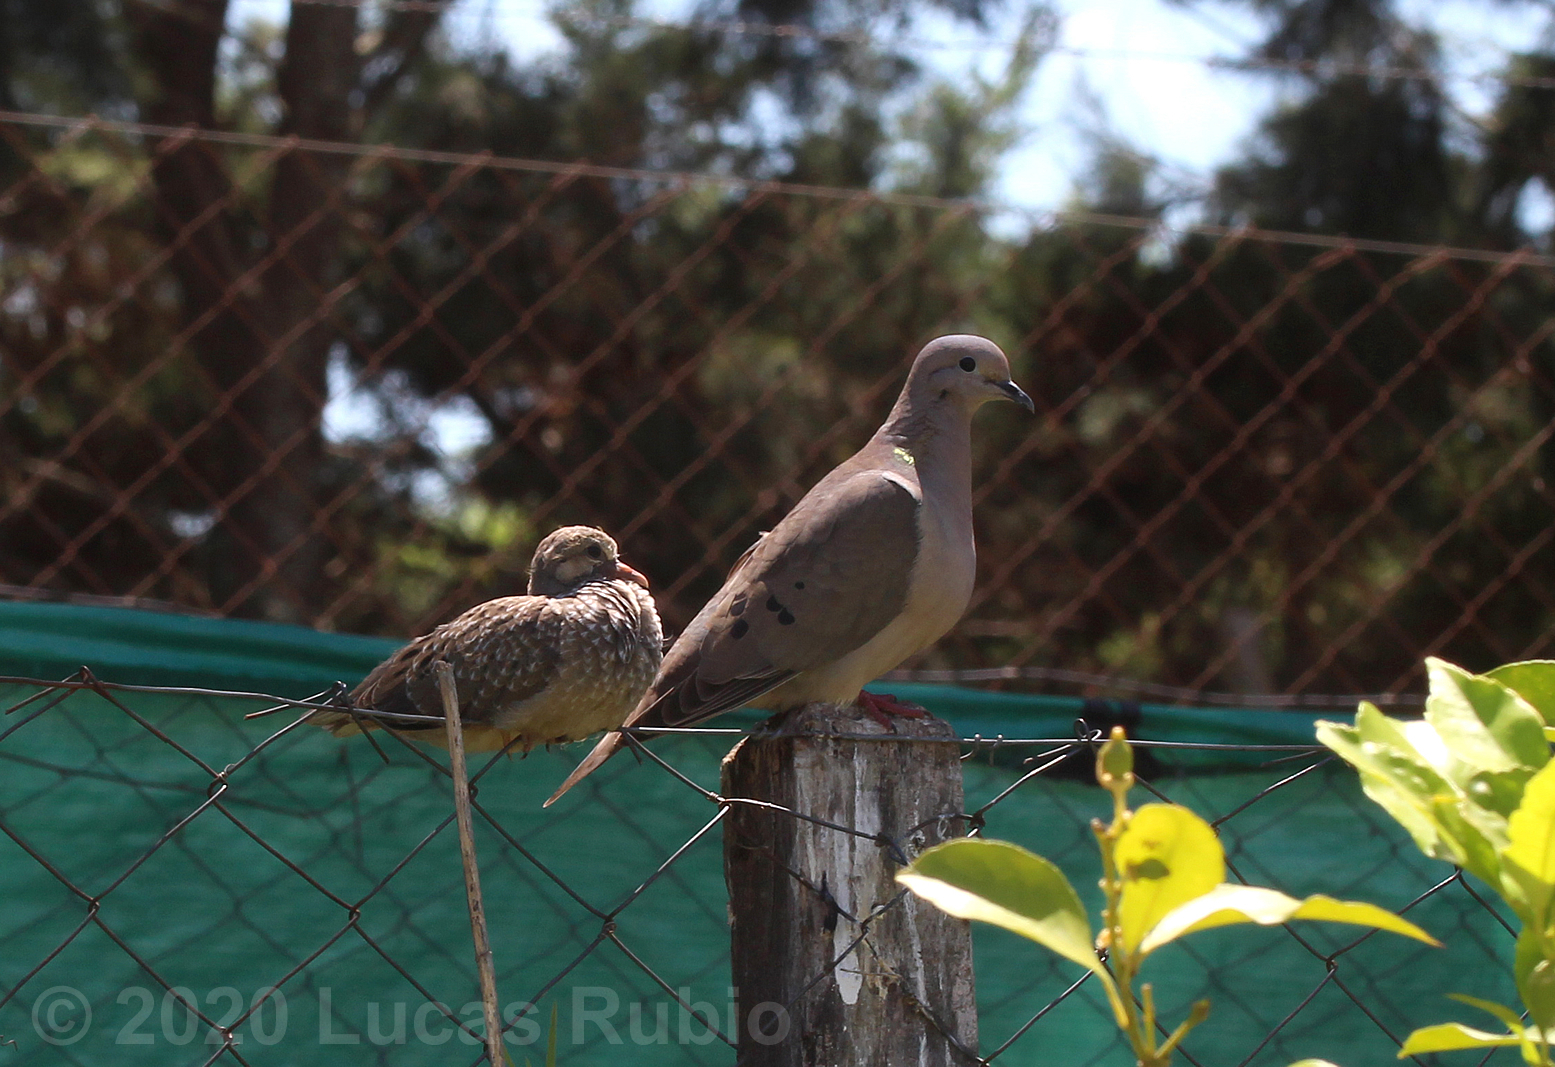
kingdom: Animalia
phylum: Chordata
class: Aves
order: Columbiformes
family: Columbidae
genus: Zenaida
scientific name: Zenaida auriculata
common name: Eared dove
